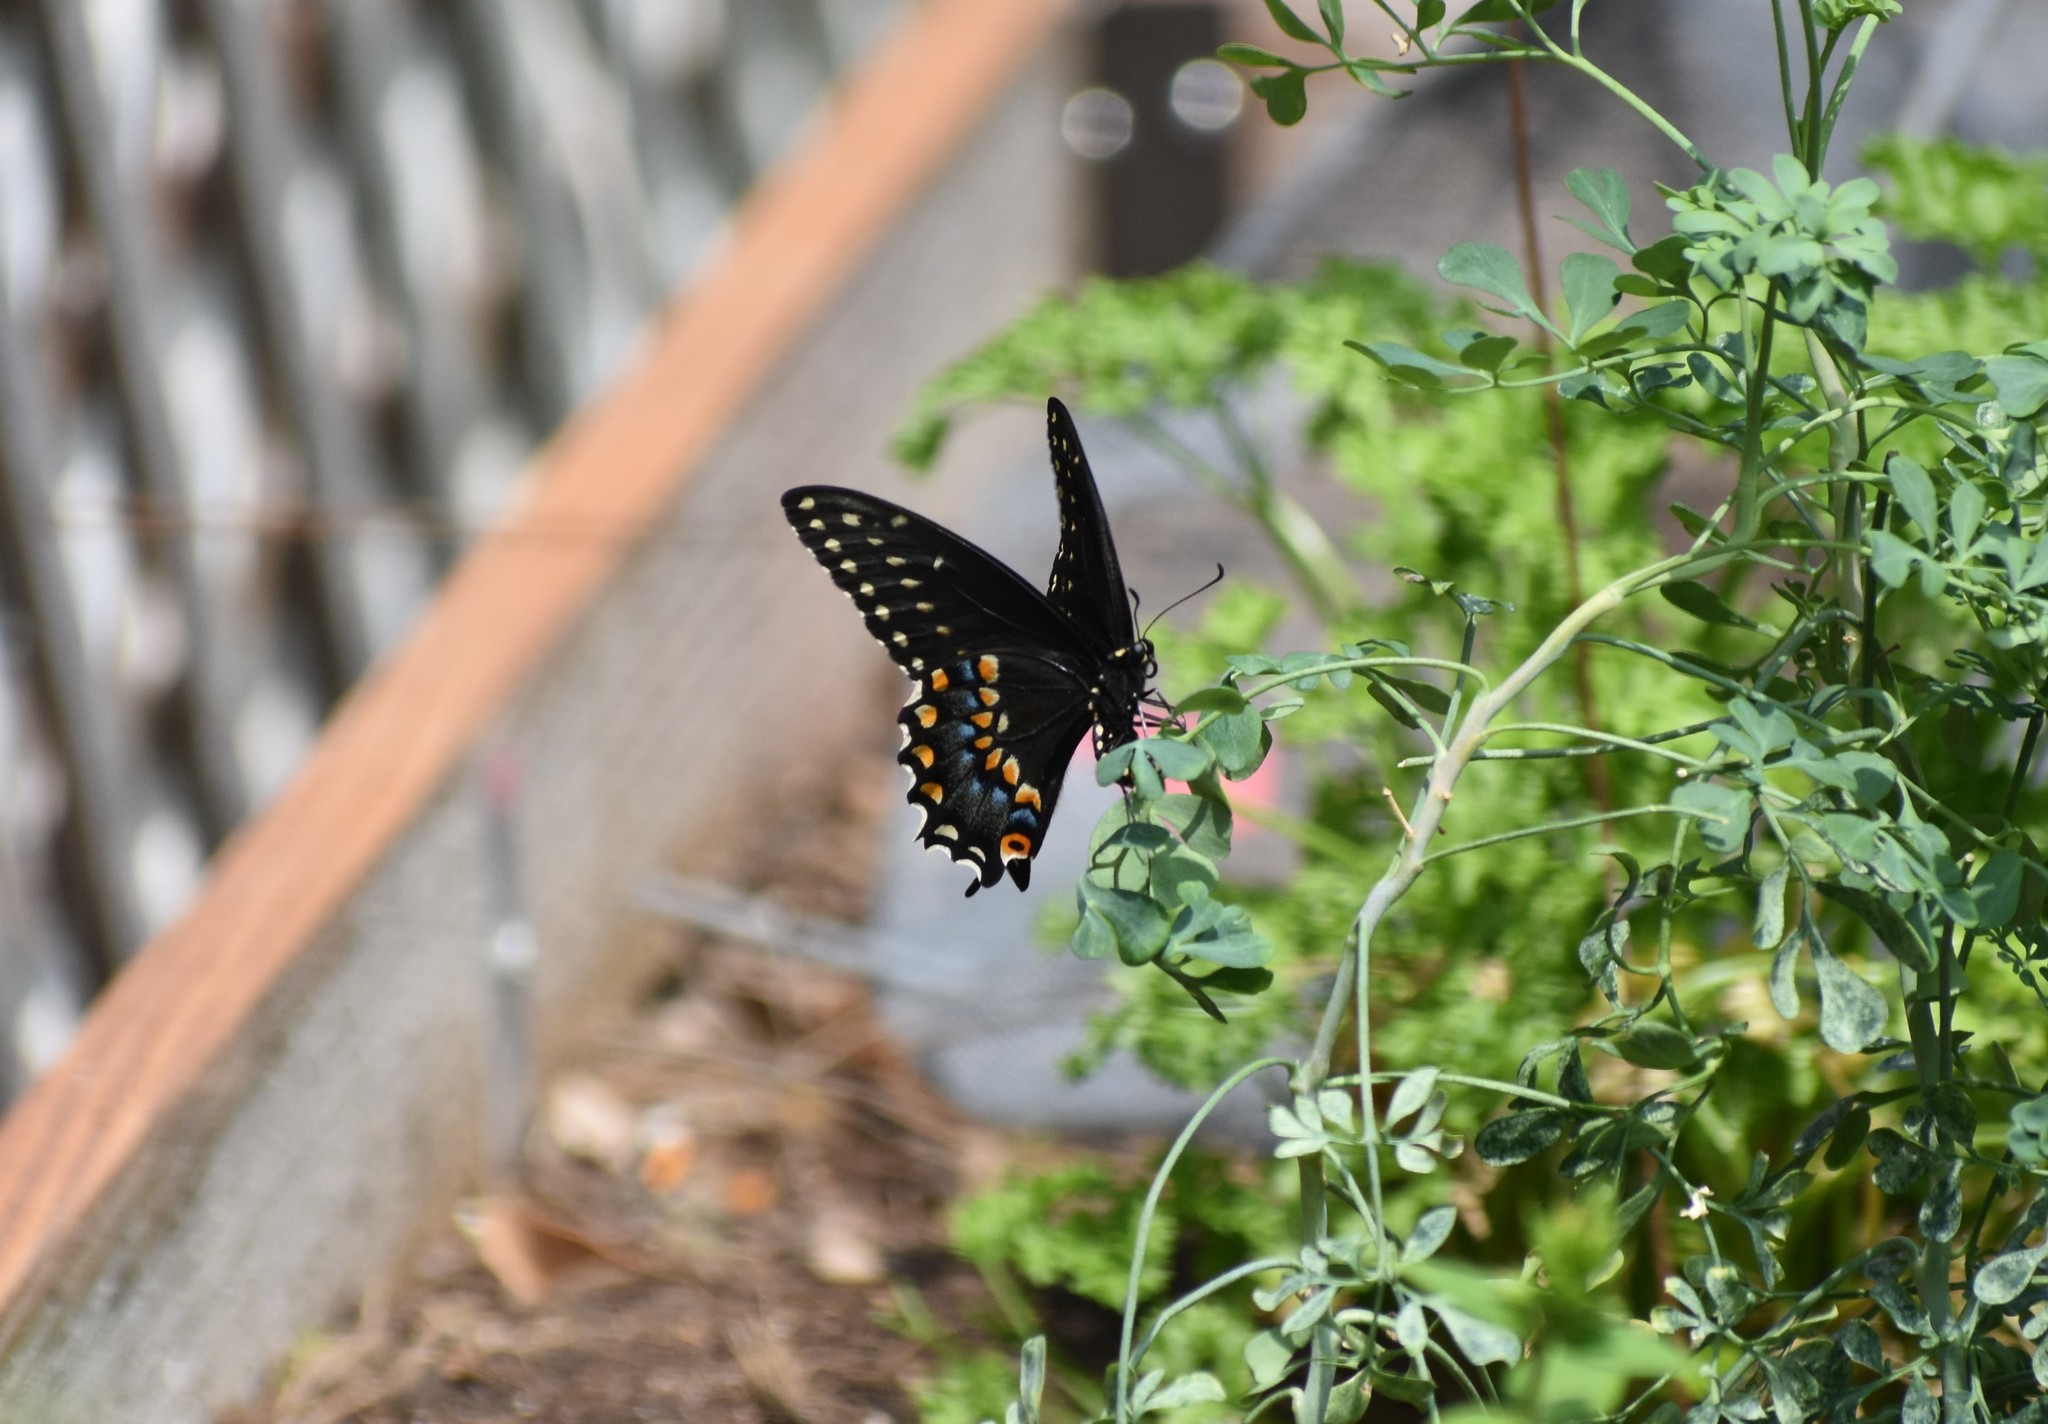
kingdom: Animalia
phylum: Arthropoda
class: Insecta
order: Lepidoptera
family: Papilionidae
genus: Papilio
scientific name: Papilio polyxenes
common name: Black swallowtail
